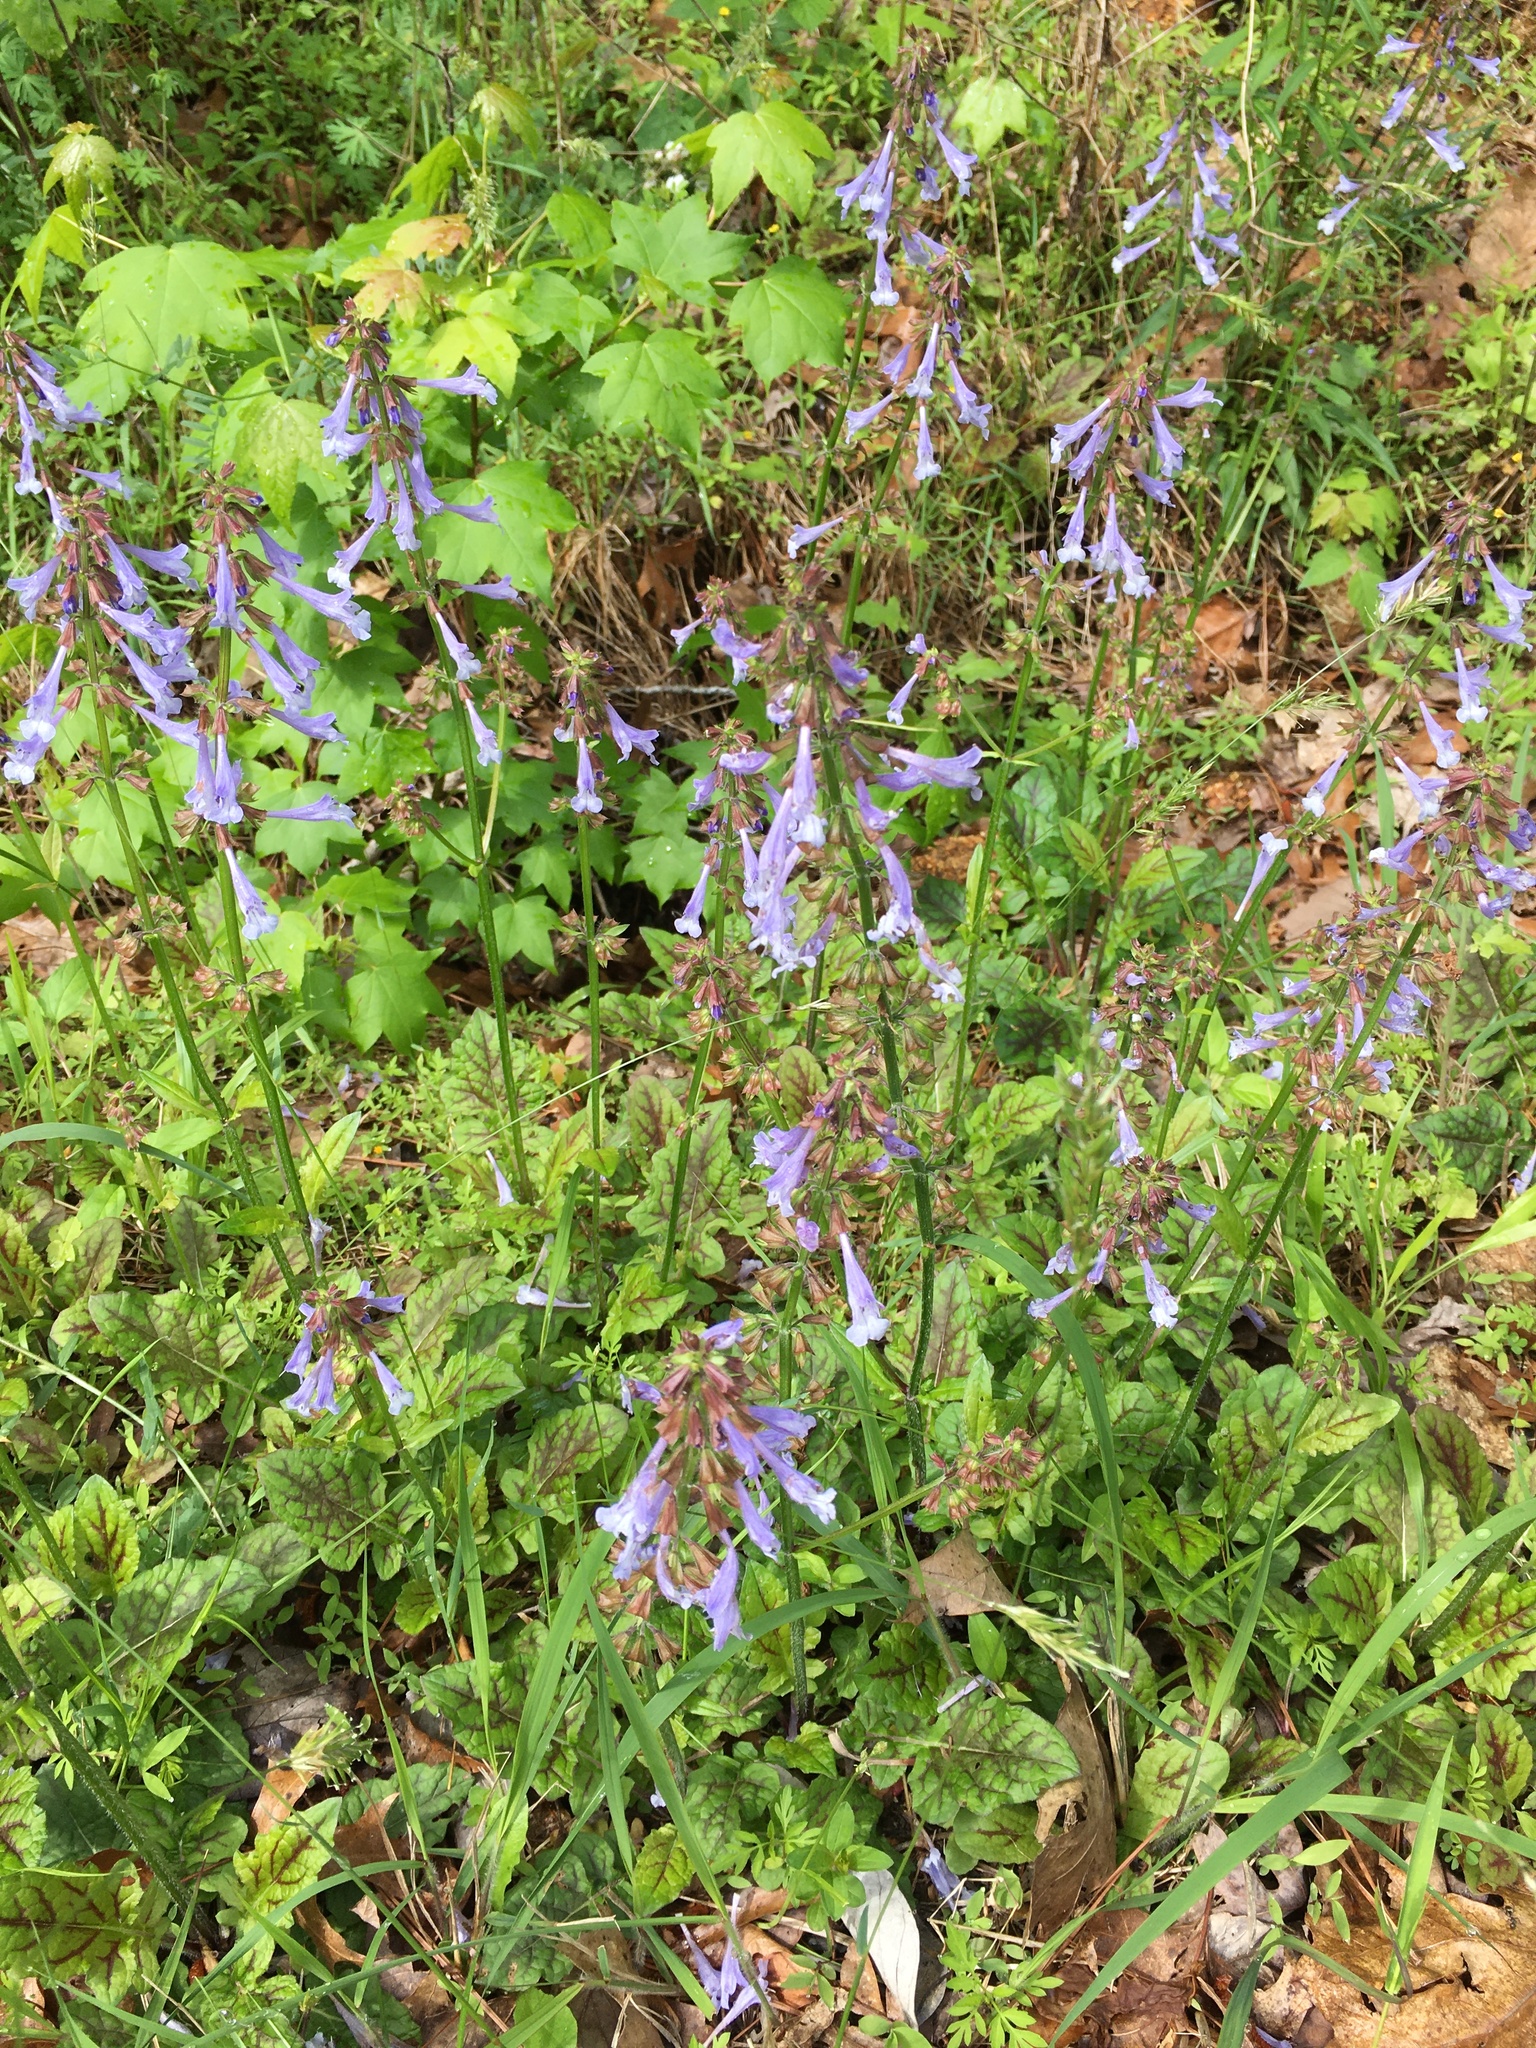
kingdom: Plantae
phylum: Tracheophyta
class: Magnoliopsida
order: Lamiales
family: Lamiaceae
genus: Salvia
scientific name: Salvia lyrata
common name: Cancerweed
